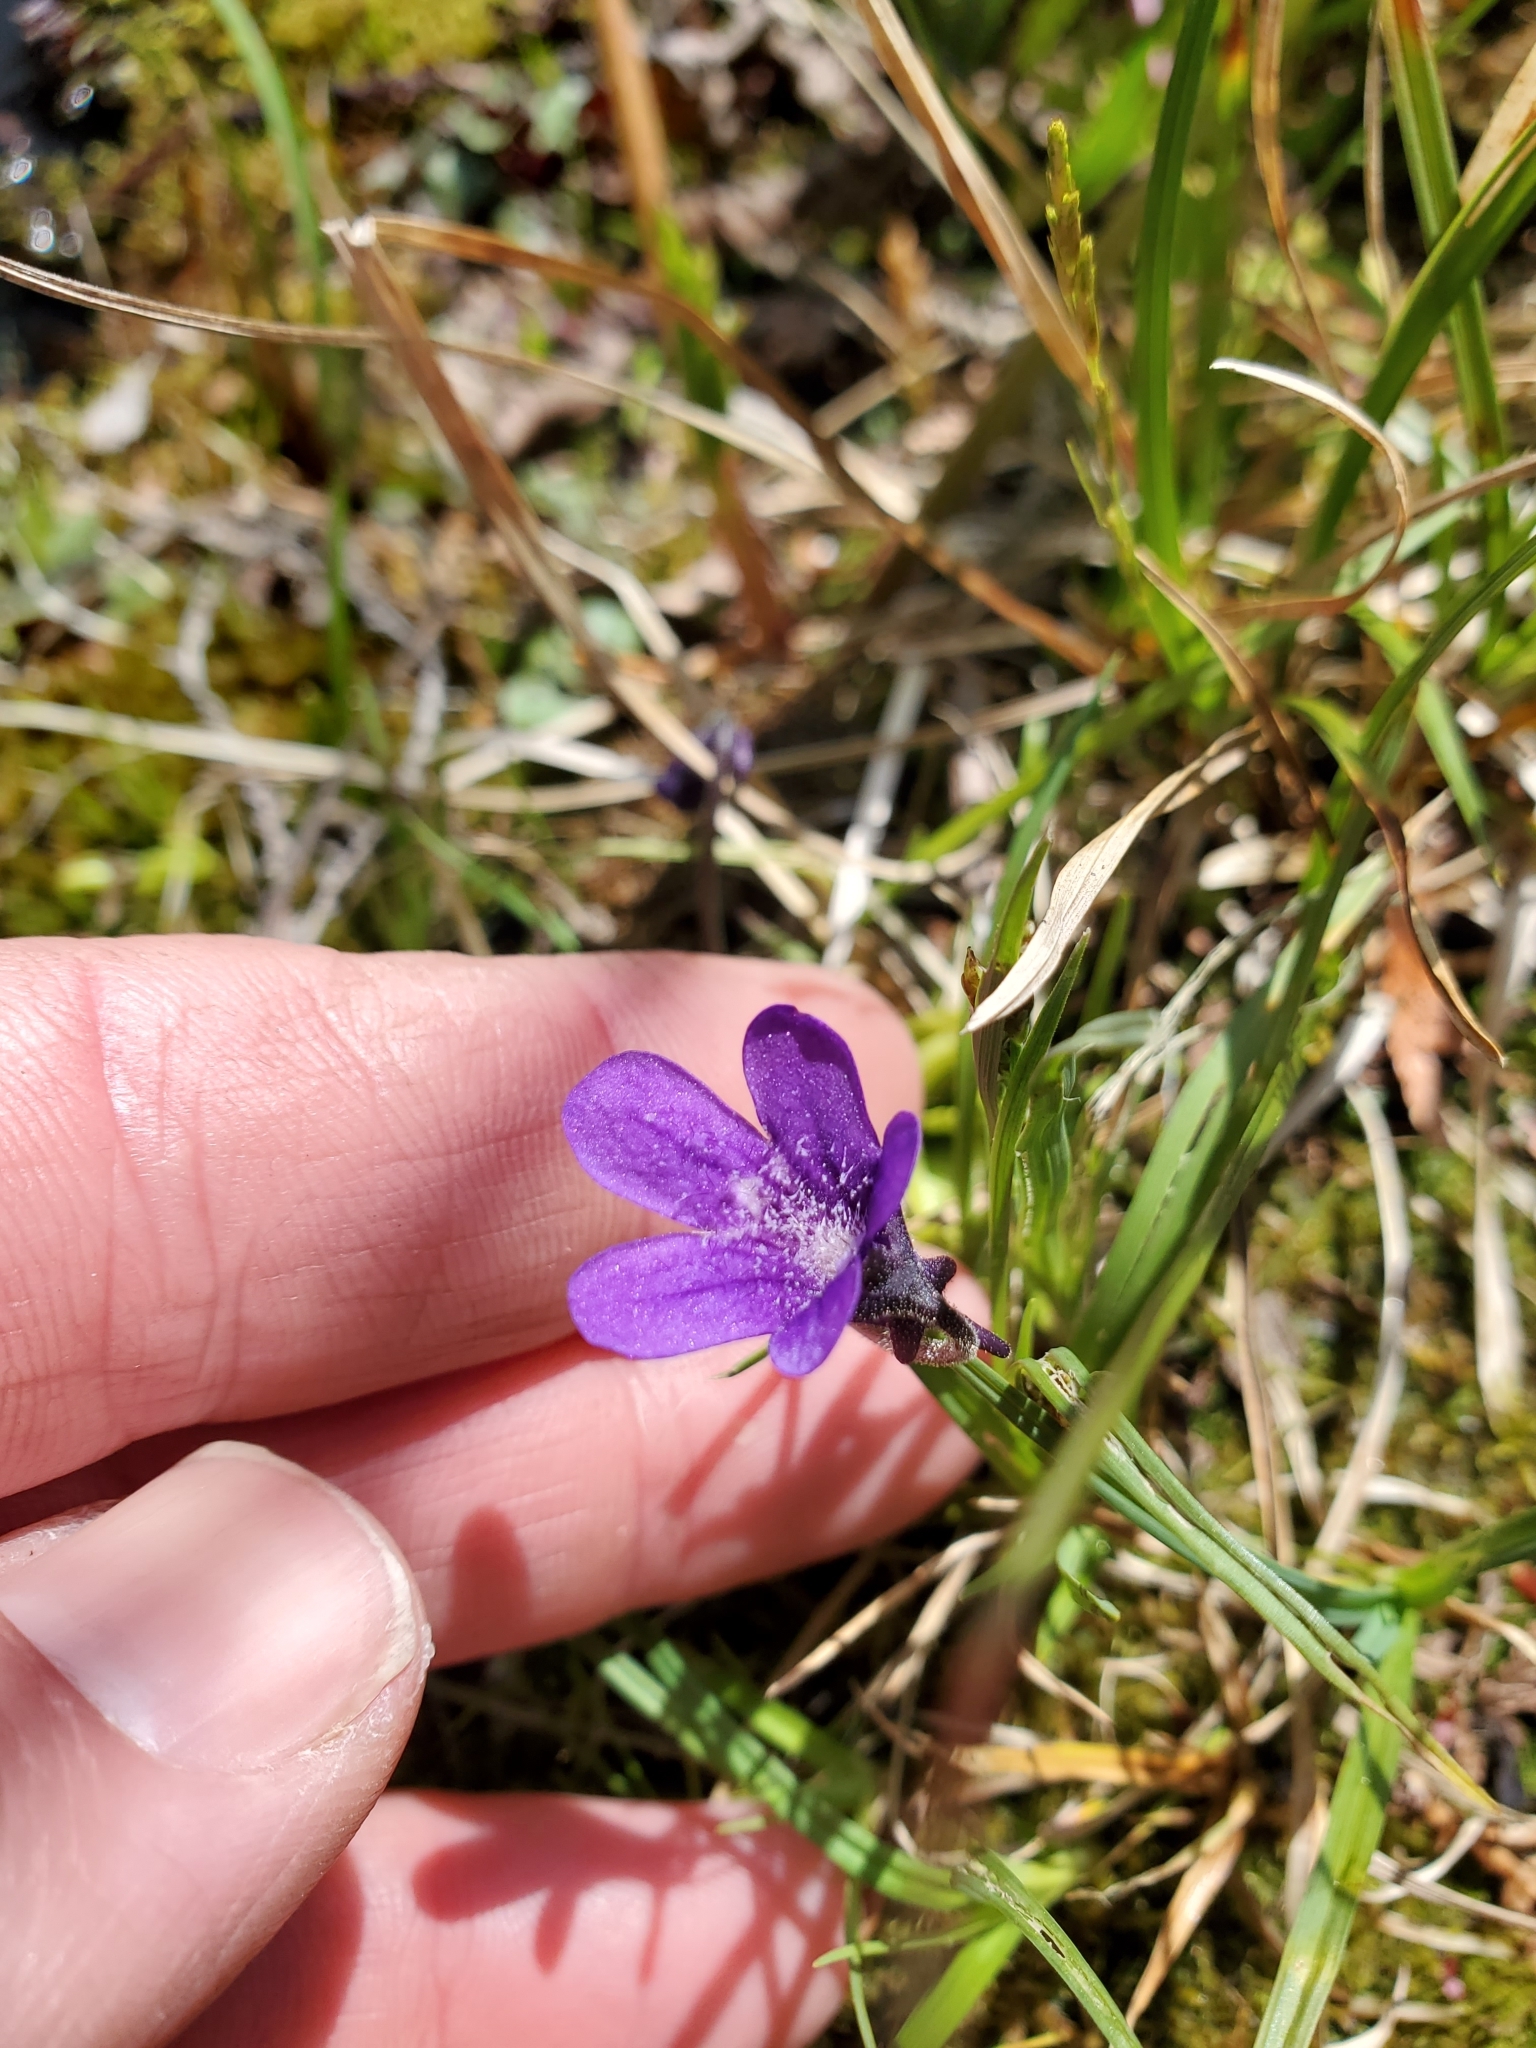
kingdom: Plantae
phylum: Tracheophyta
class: Magnoliopsida
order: Lamiales
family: Lentibulariaceae
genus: Pinguicula
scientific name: Pinguicula vulgaris
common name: Common butterwort
